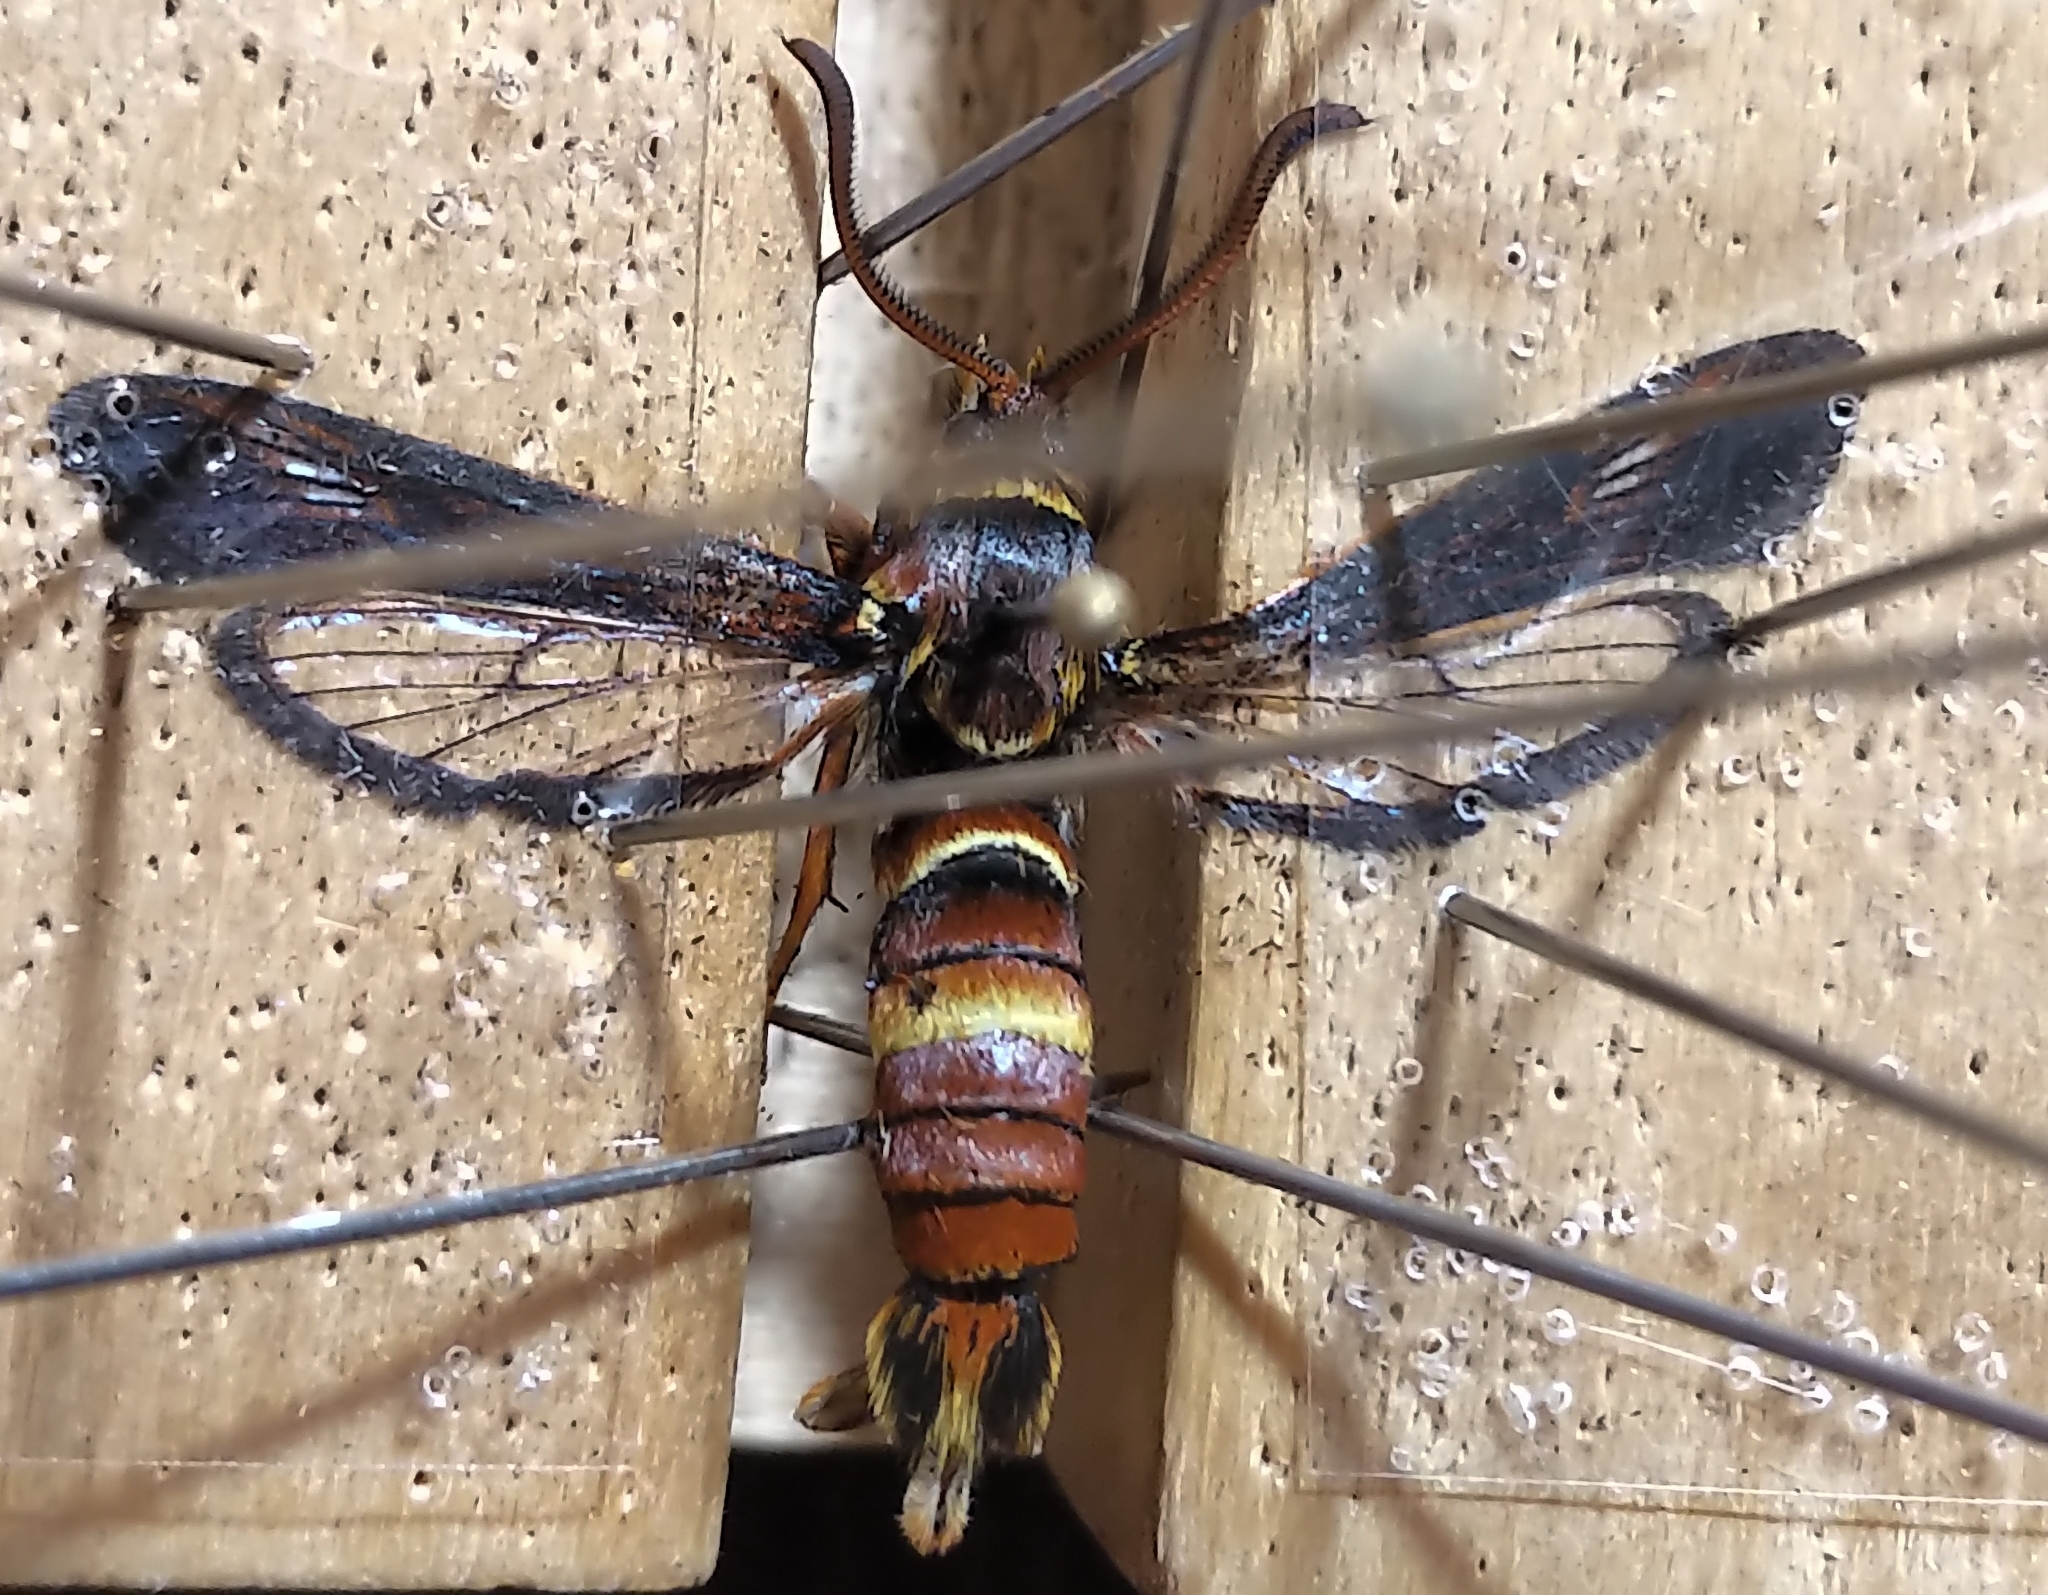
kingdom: Animalia
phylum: Arthropoda
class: Insecta
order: Lepidoptera
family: Sesiidae
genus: Paranthrene
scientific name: Paranthrene robiniae
